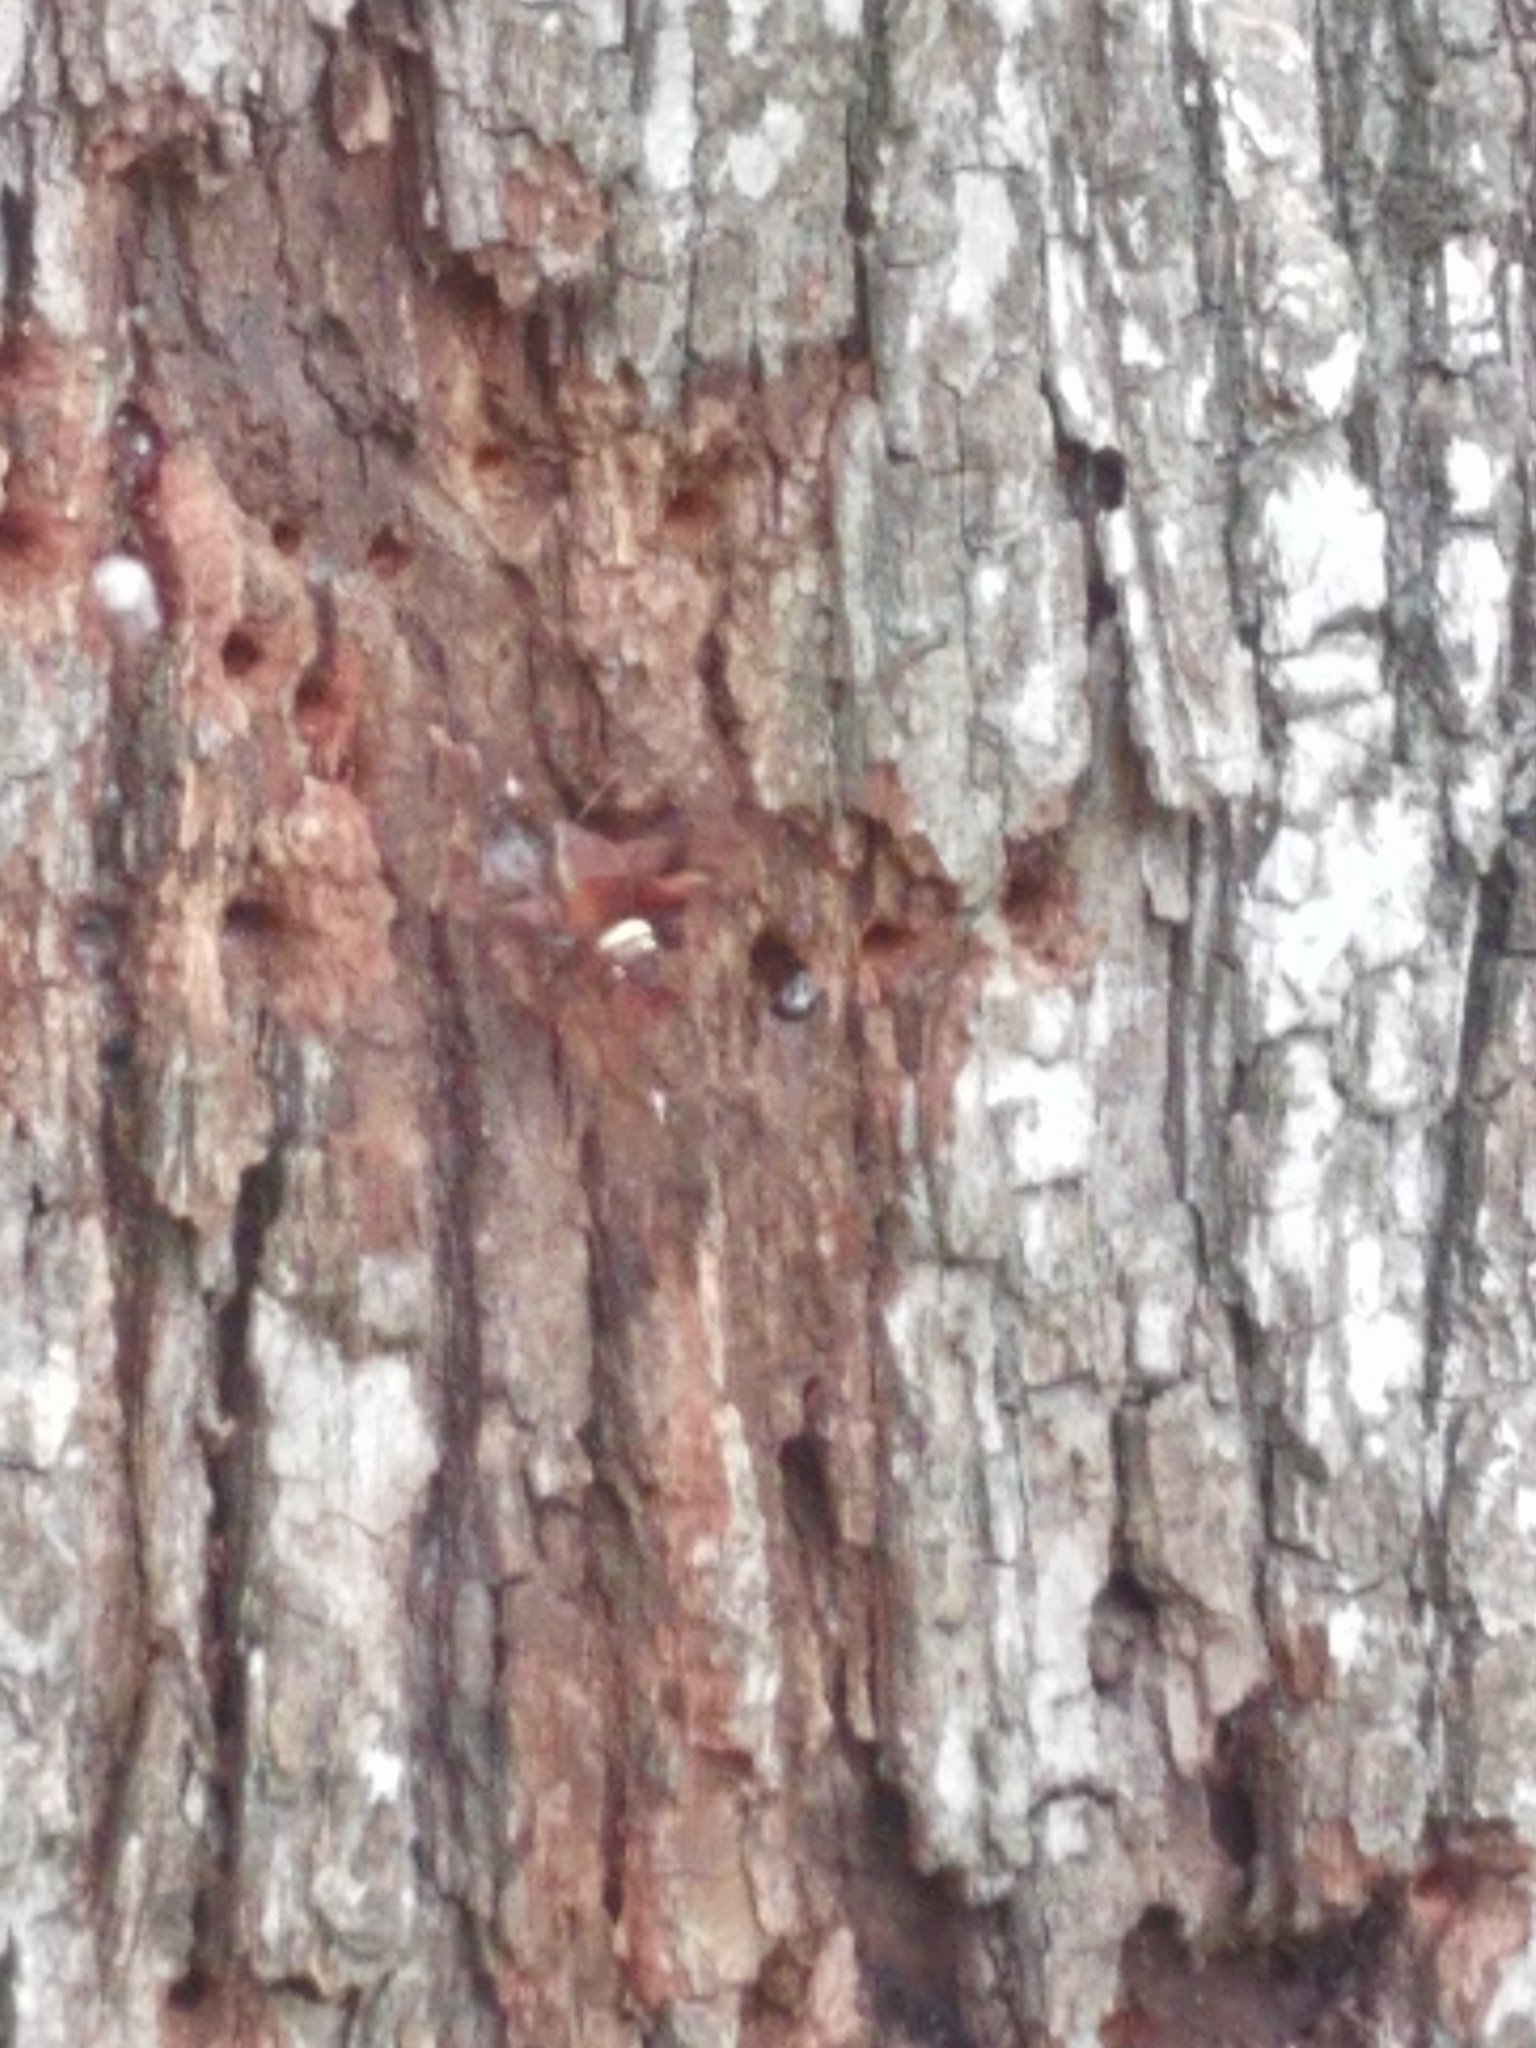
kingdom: Animalia
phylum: Arthropoda
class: Insecta
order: Lepidoptera
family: Sphingidae
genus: Amphion
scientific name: Amphion floridensis
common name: Nessus sphinx
